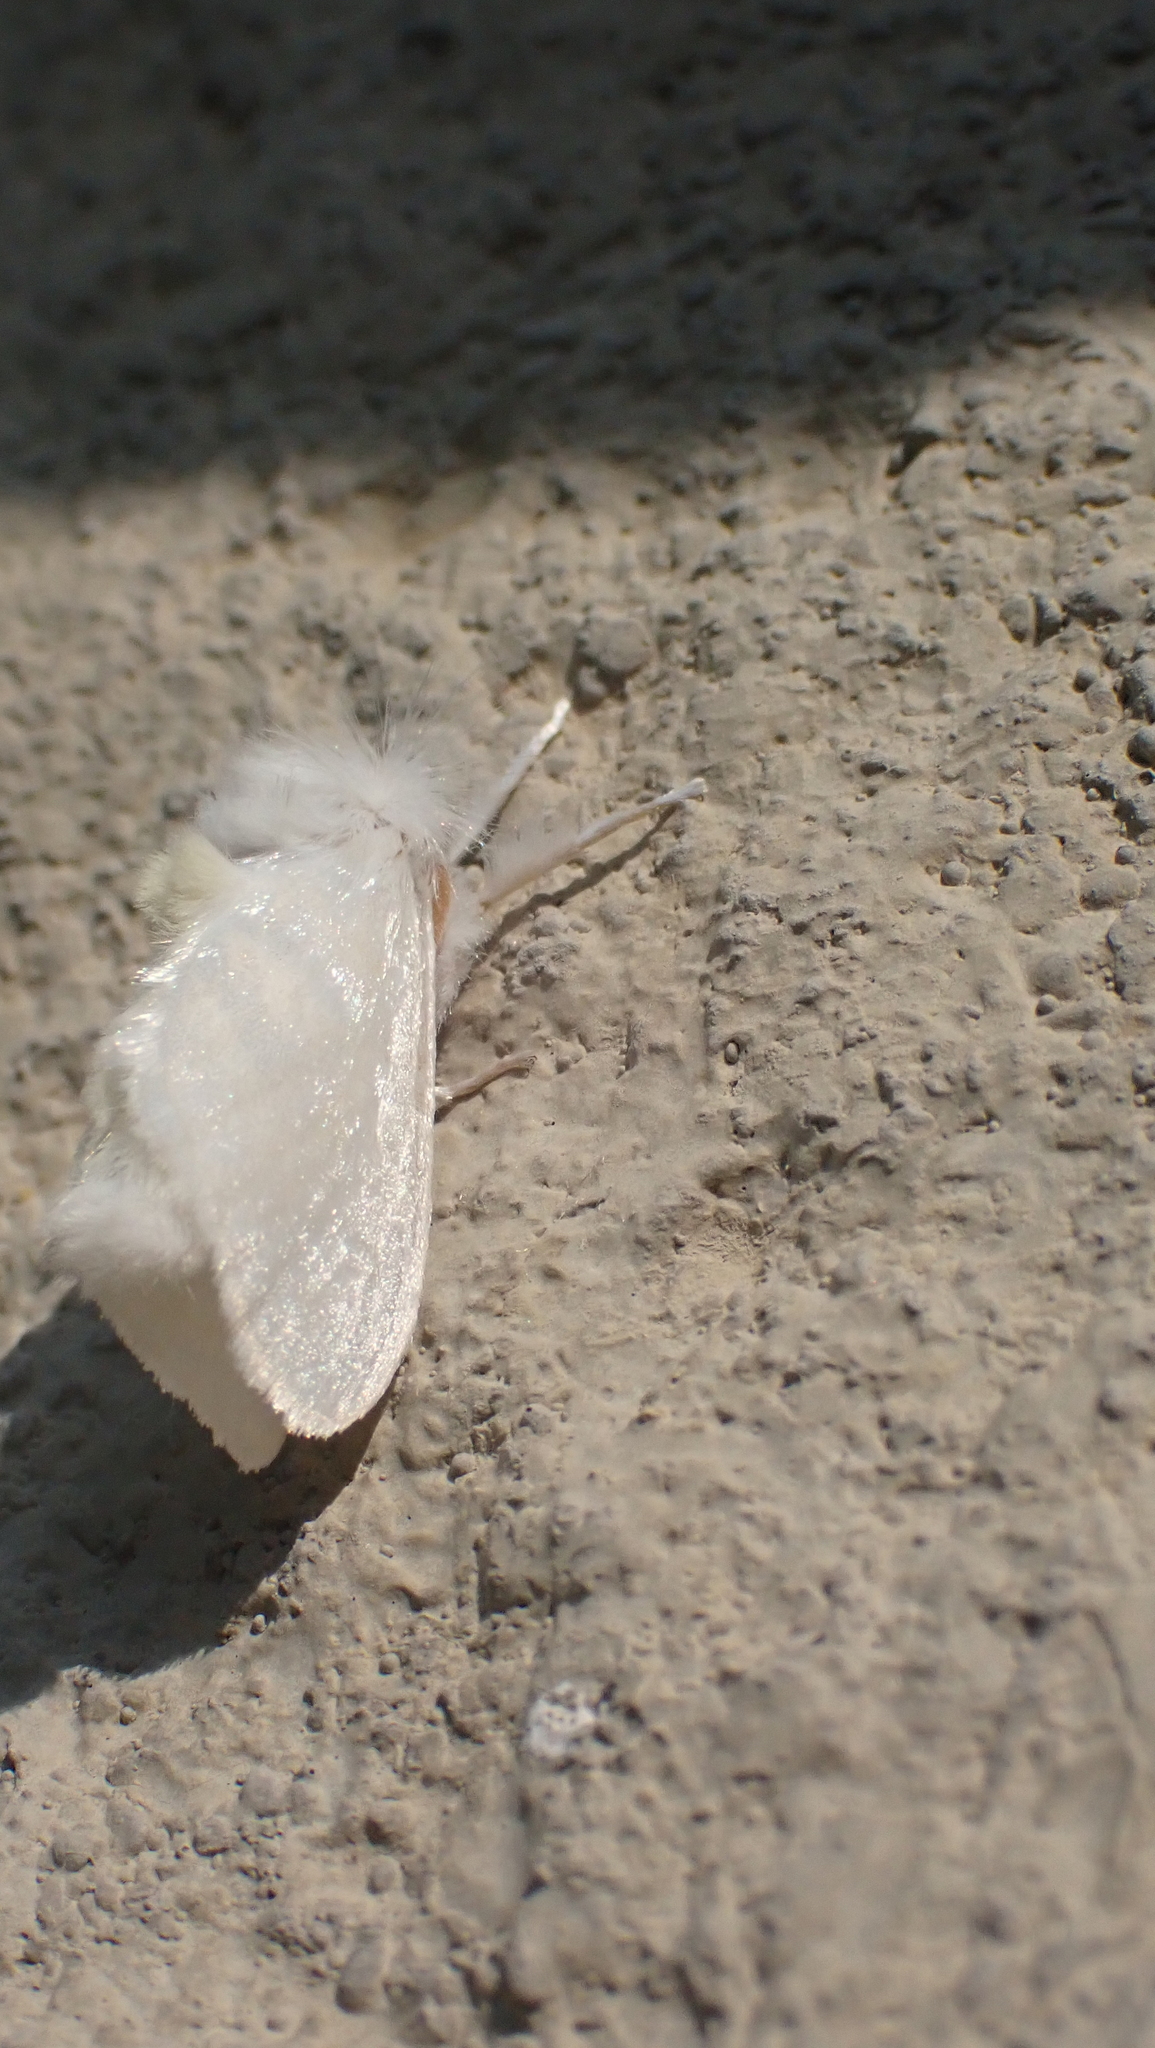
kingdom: Animalia
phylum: Arthropoda
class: Insecta
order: Lepidoptera
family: Megalopygidae
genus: Norape
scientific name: Norape cretata
